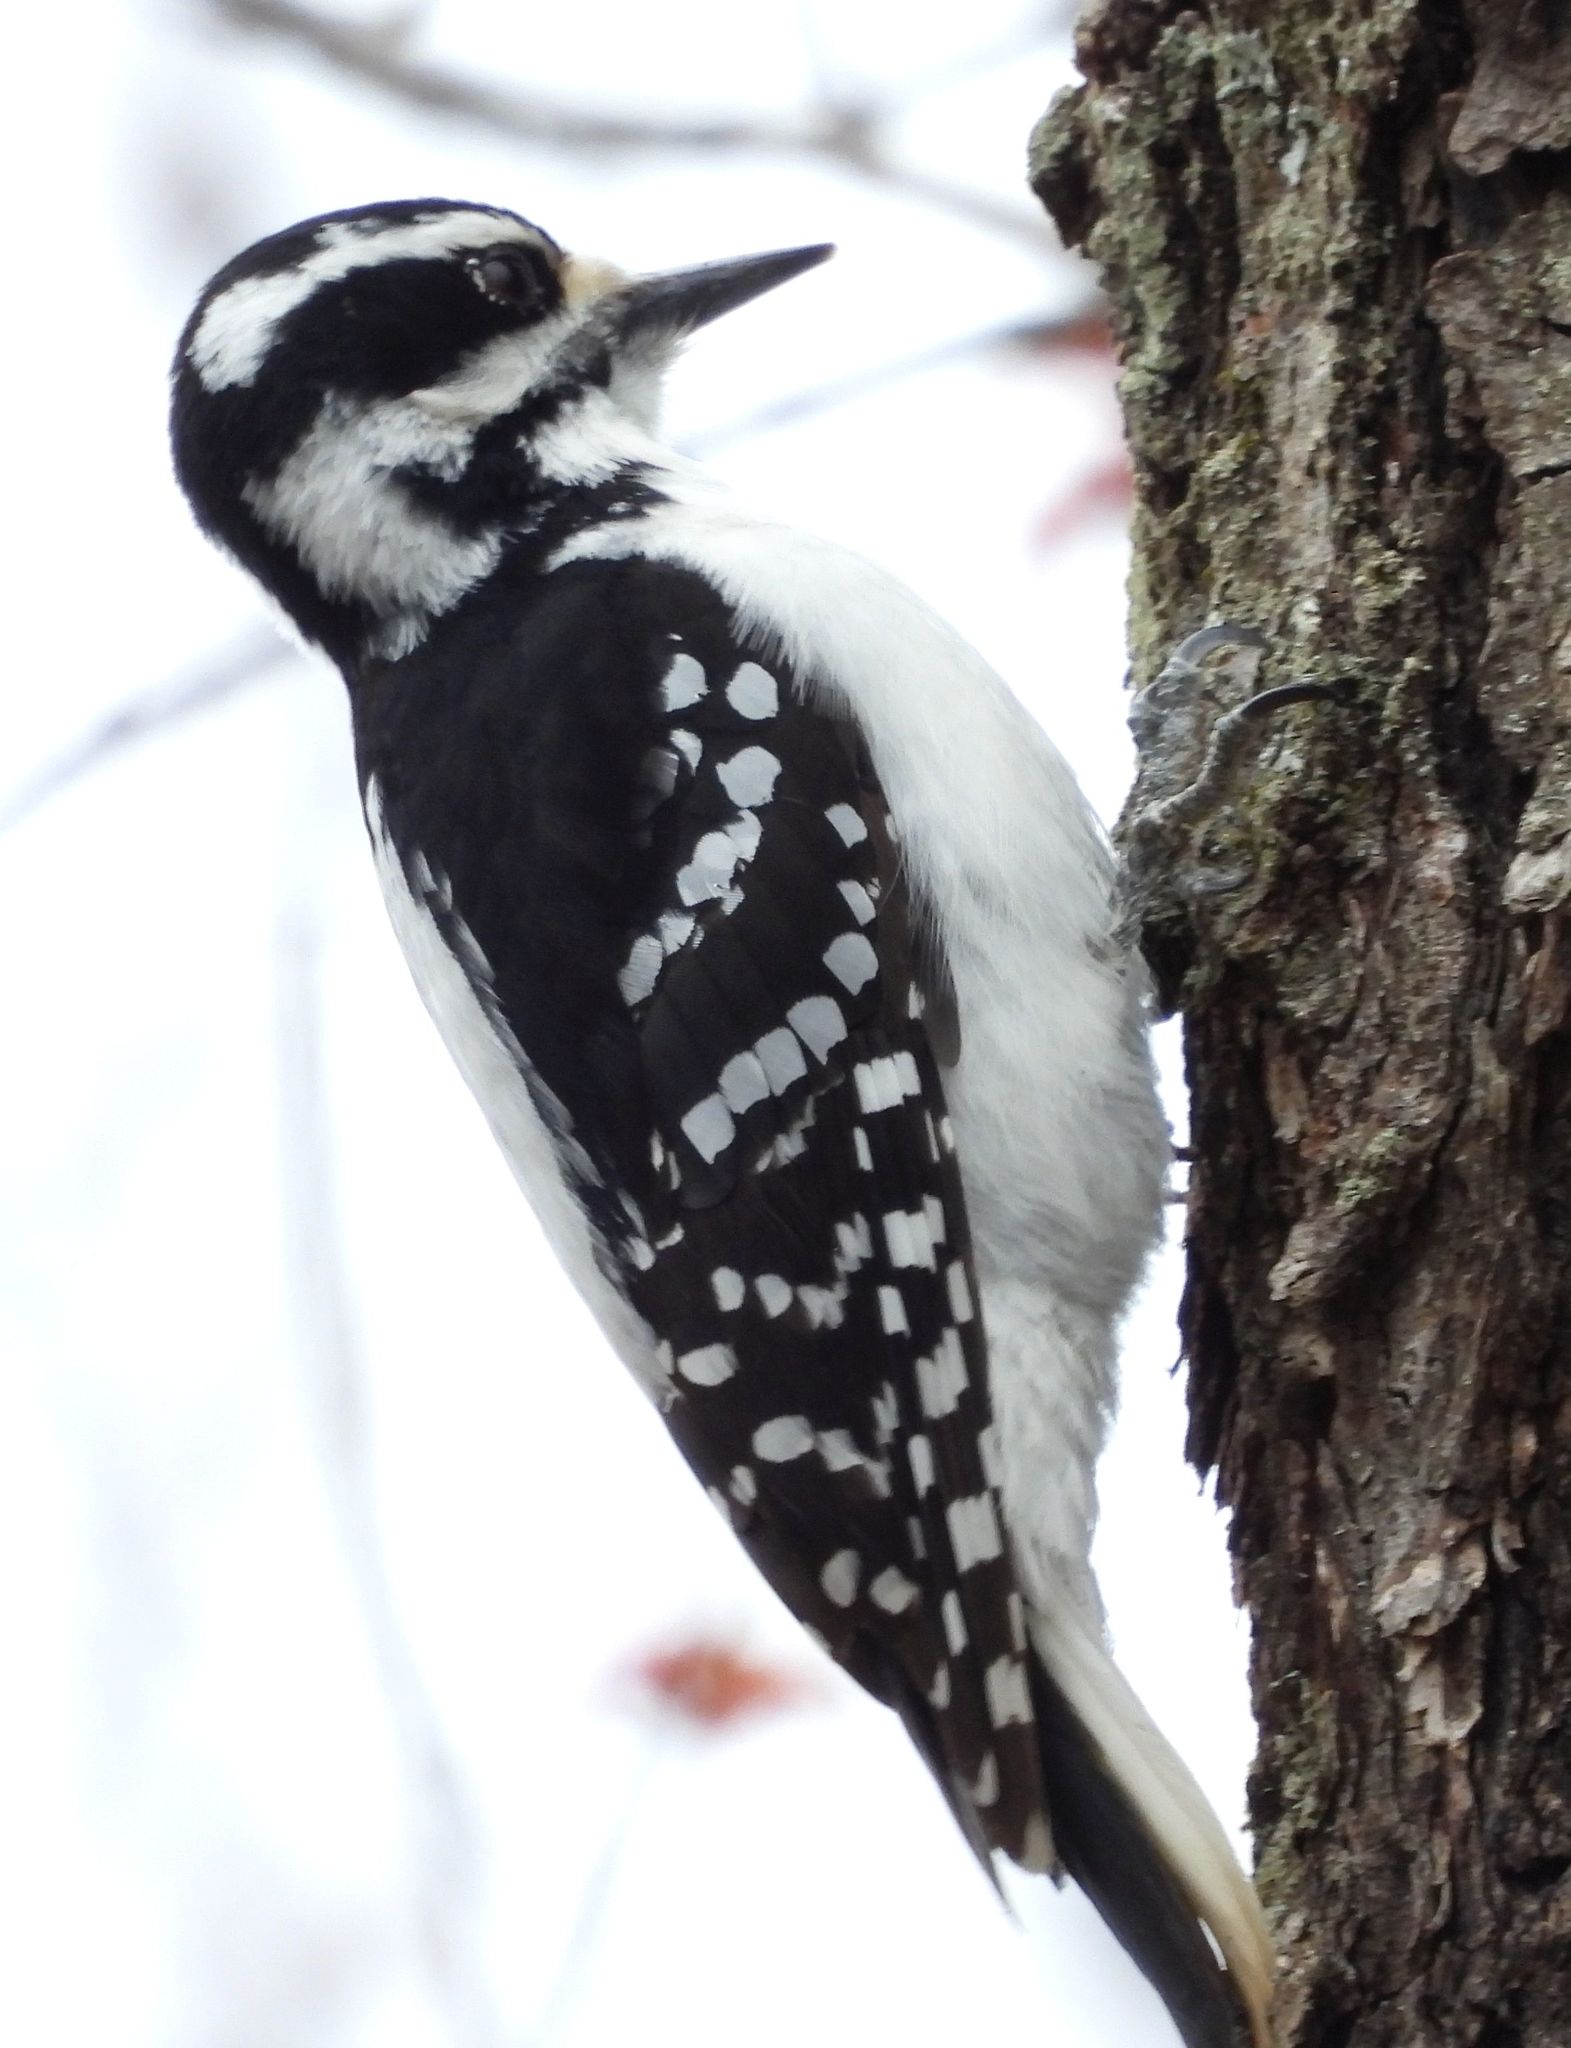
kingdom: Animalia
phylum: Chordata
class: Aves
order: Piciformes
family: Picidae
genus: Leuconotopicus
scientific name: Leuconotopicus villosus
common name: Hairy woodpecker
